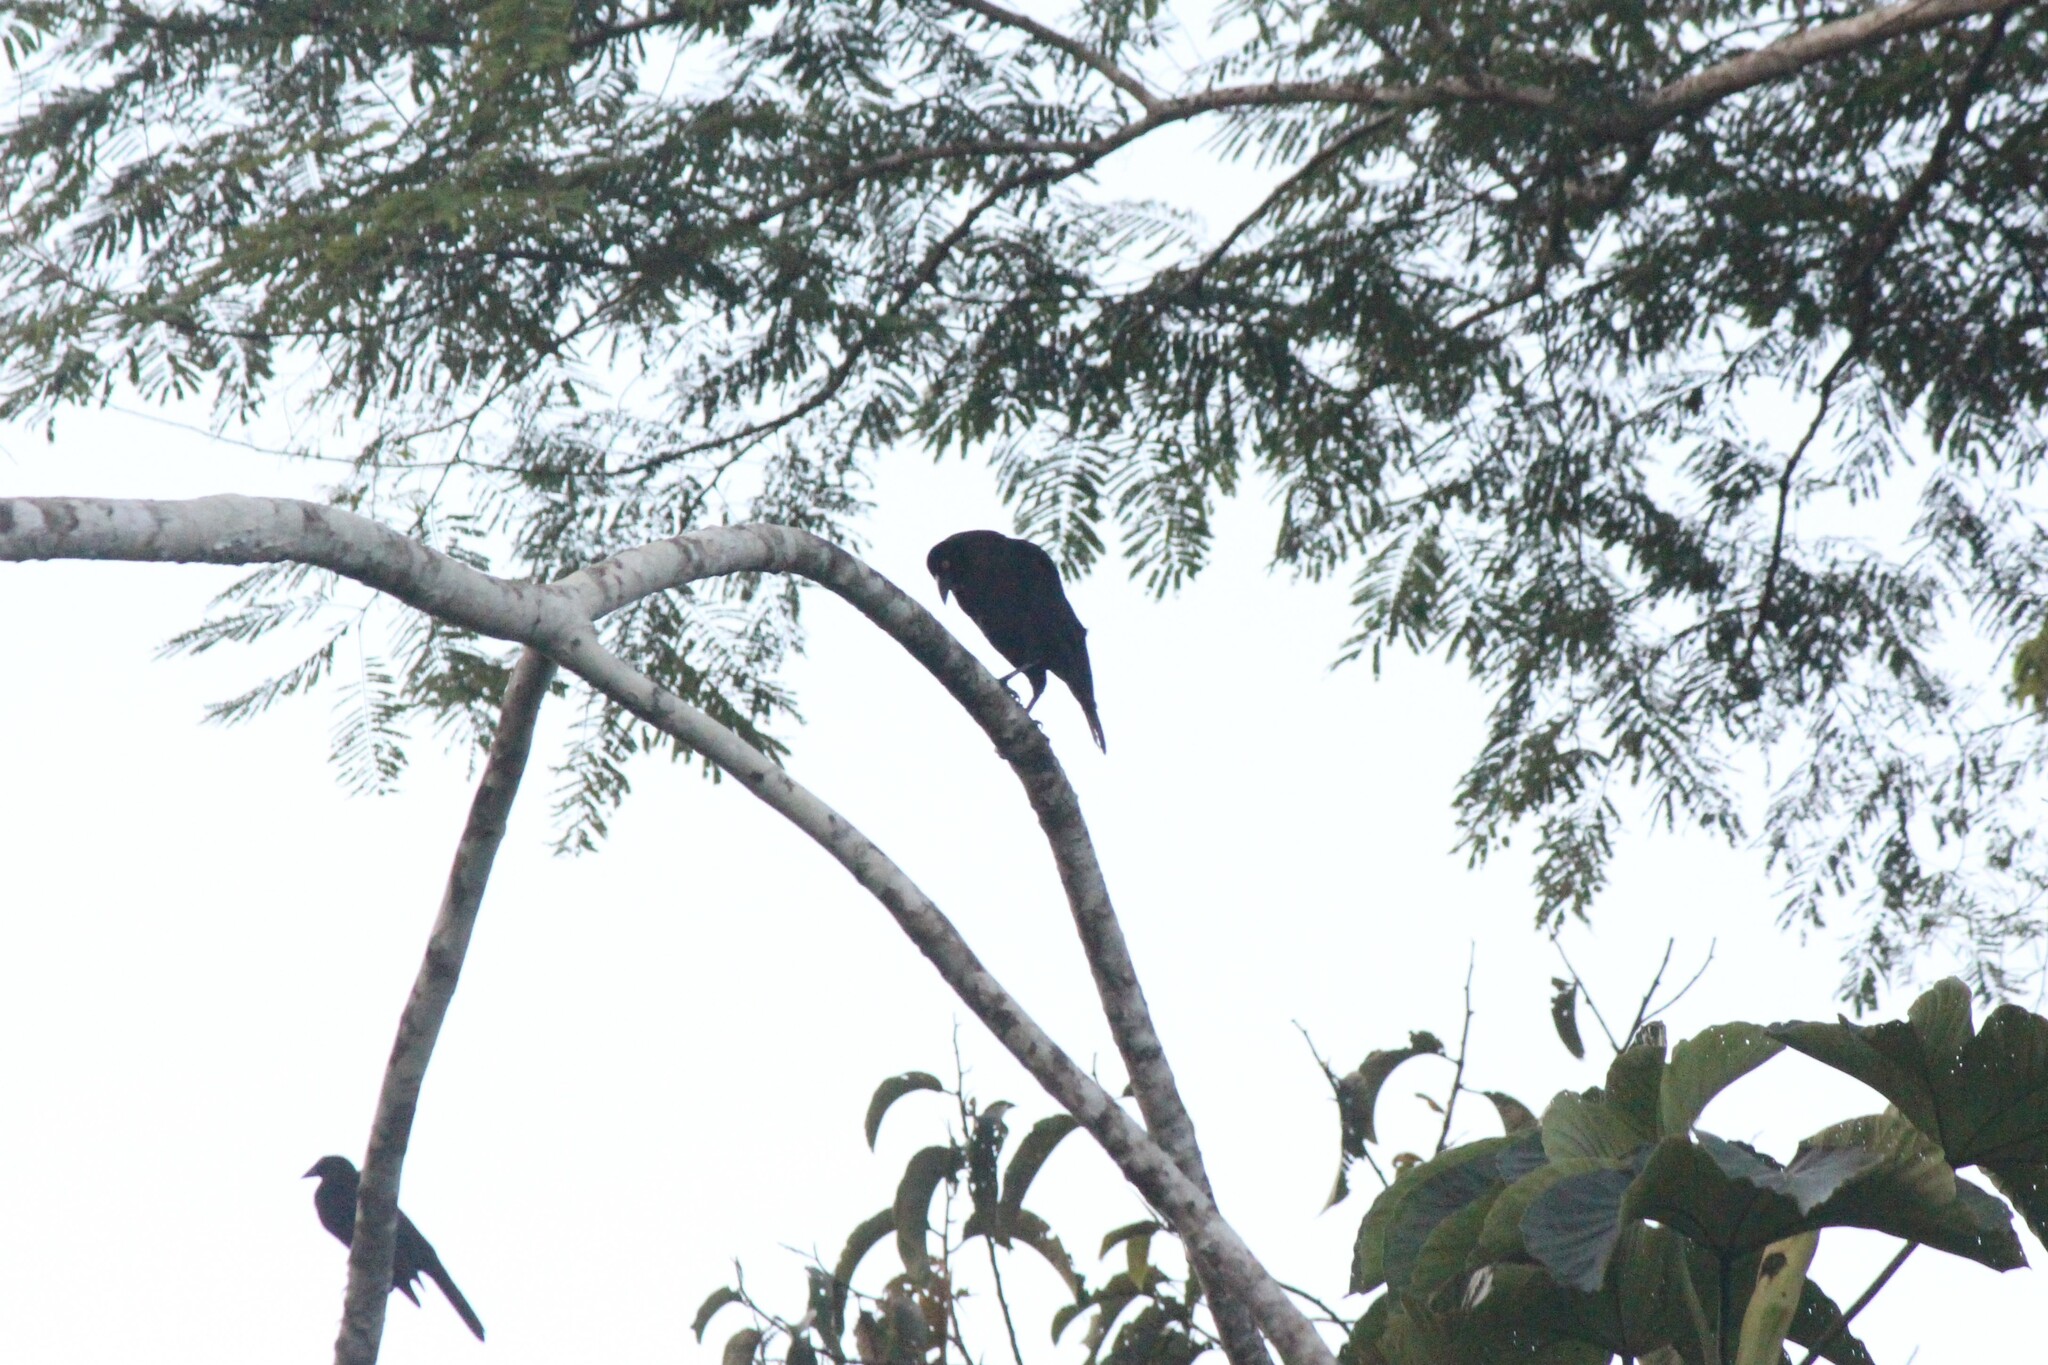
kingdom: Animalia
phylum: Chordata
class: Aves
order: Passeriformes
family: Icteridae
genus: Molothrus
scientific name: Molothrus oryzivorus
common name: Giant cowbird
